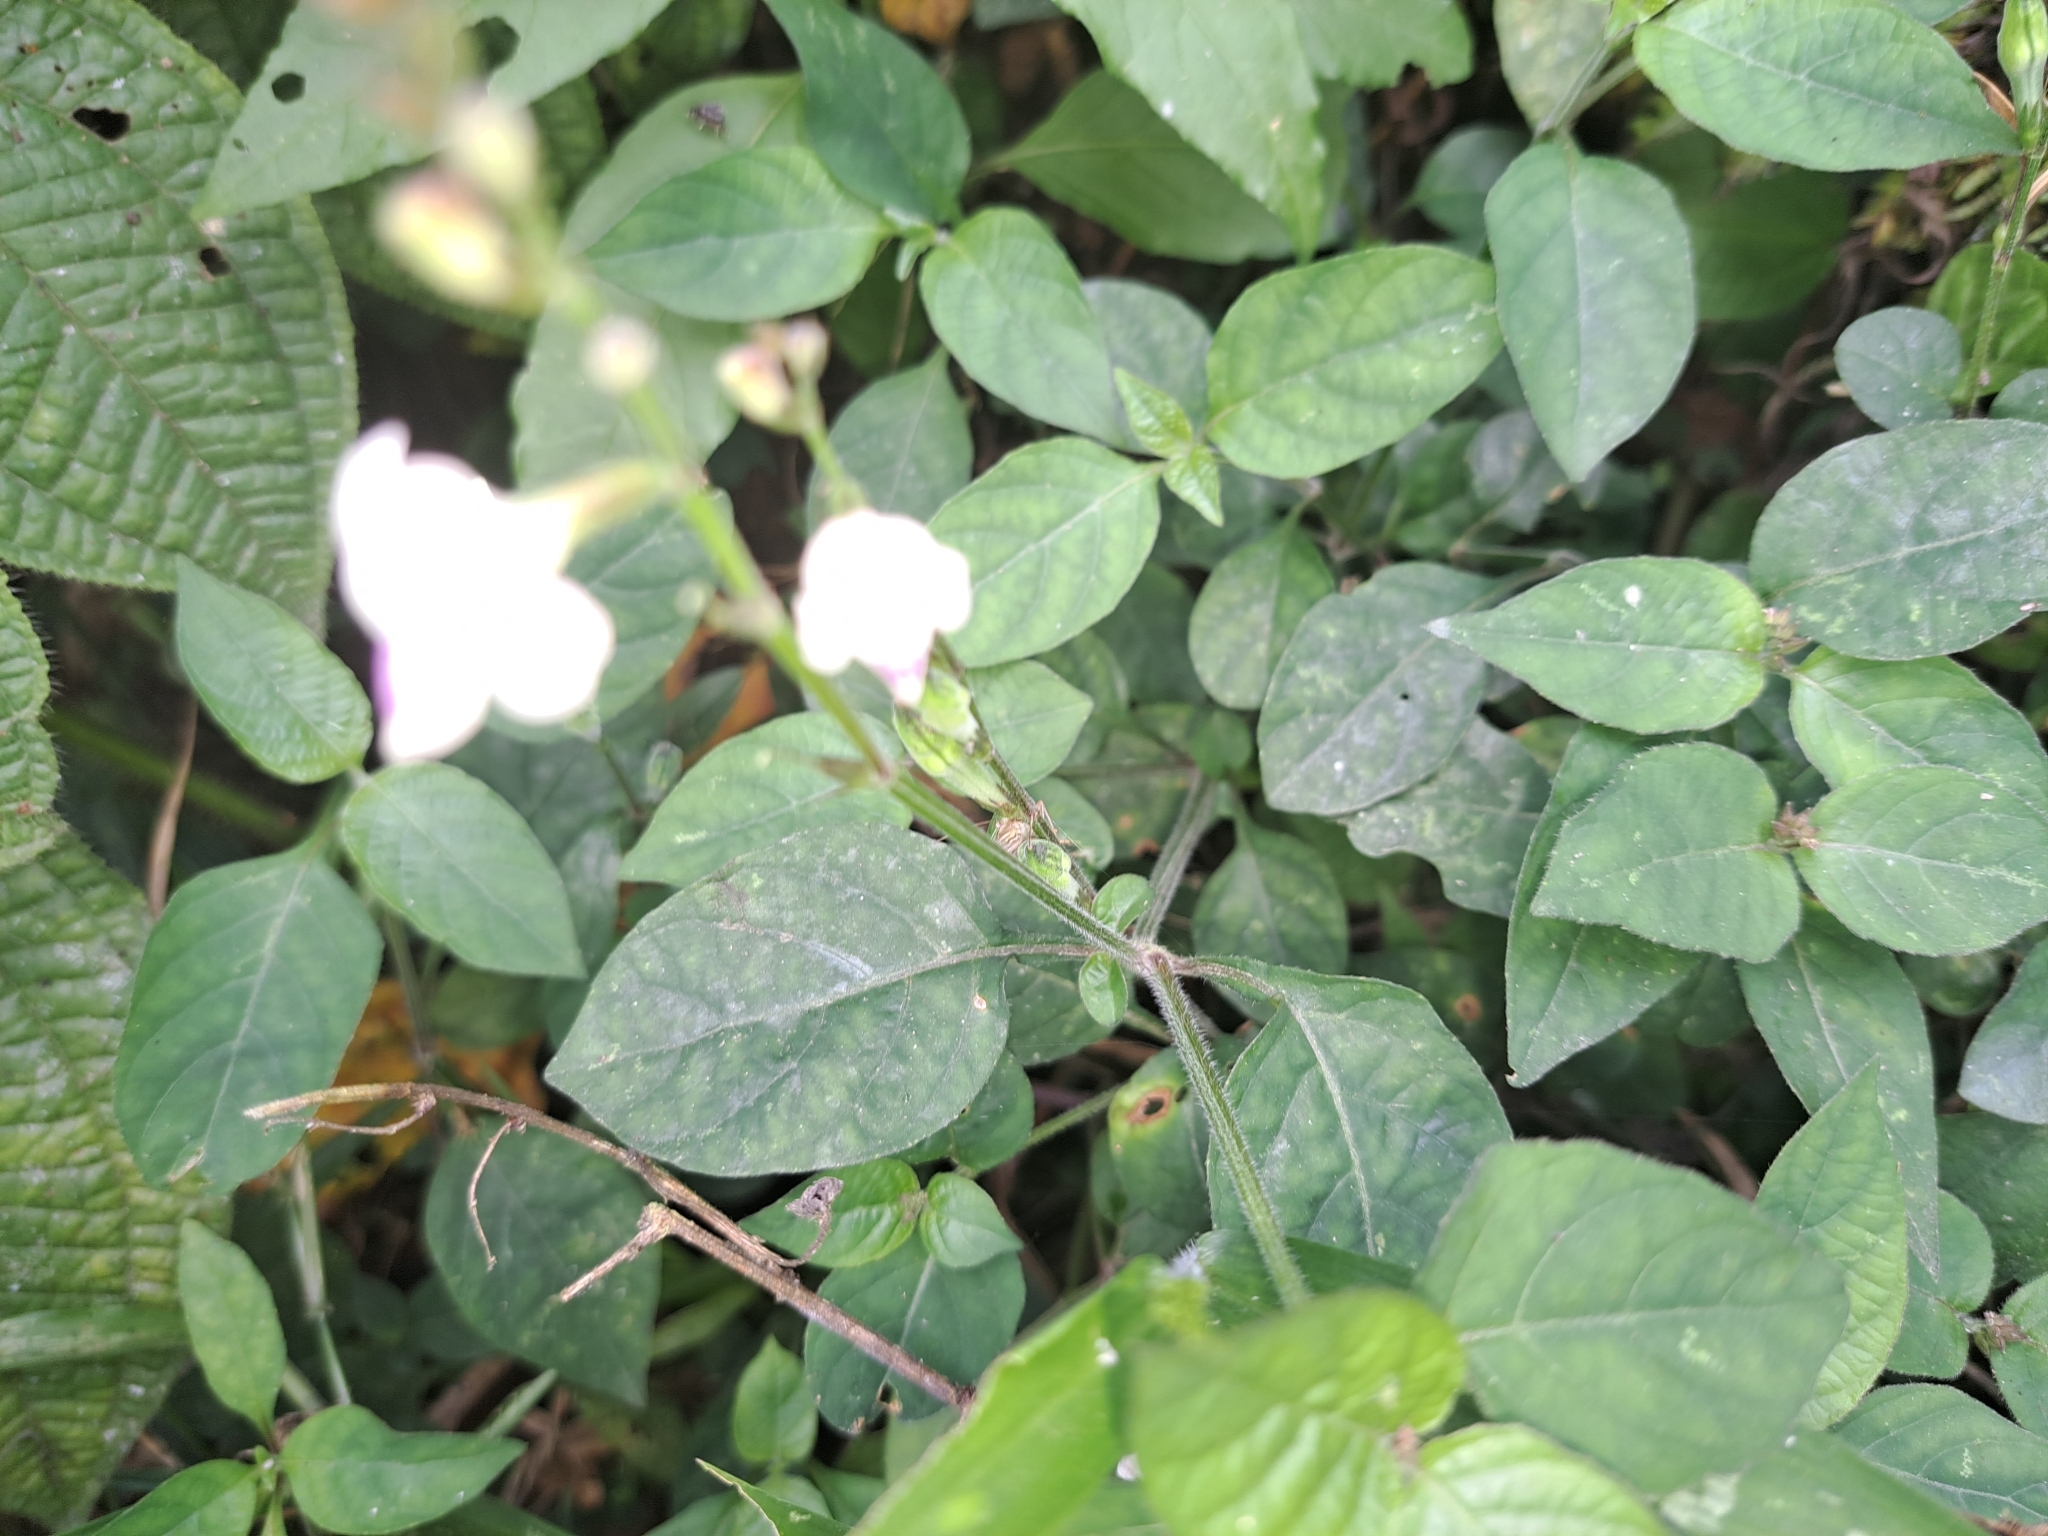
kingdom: Plantae
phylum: Tracheophyta
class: Magnoliopsida
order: Lamiales
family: Acanthaceae
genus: Asystasia
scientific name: Asystasia intrusa
